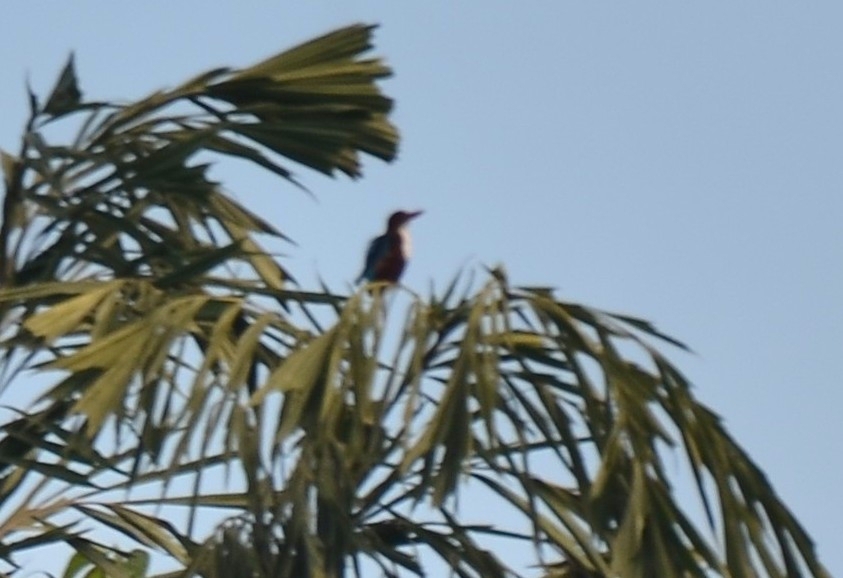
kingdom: Animalia
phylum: Chordata
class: Aves
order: Coraciiformes
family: Alcedinidae
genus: Halcyon
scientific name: Halcyon smyrnensis
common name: White-throated kingfisher
